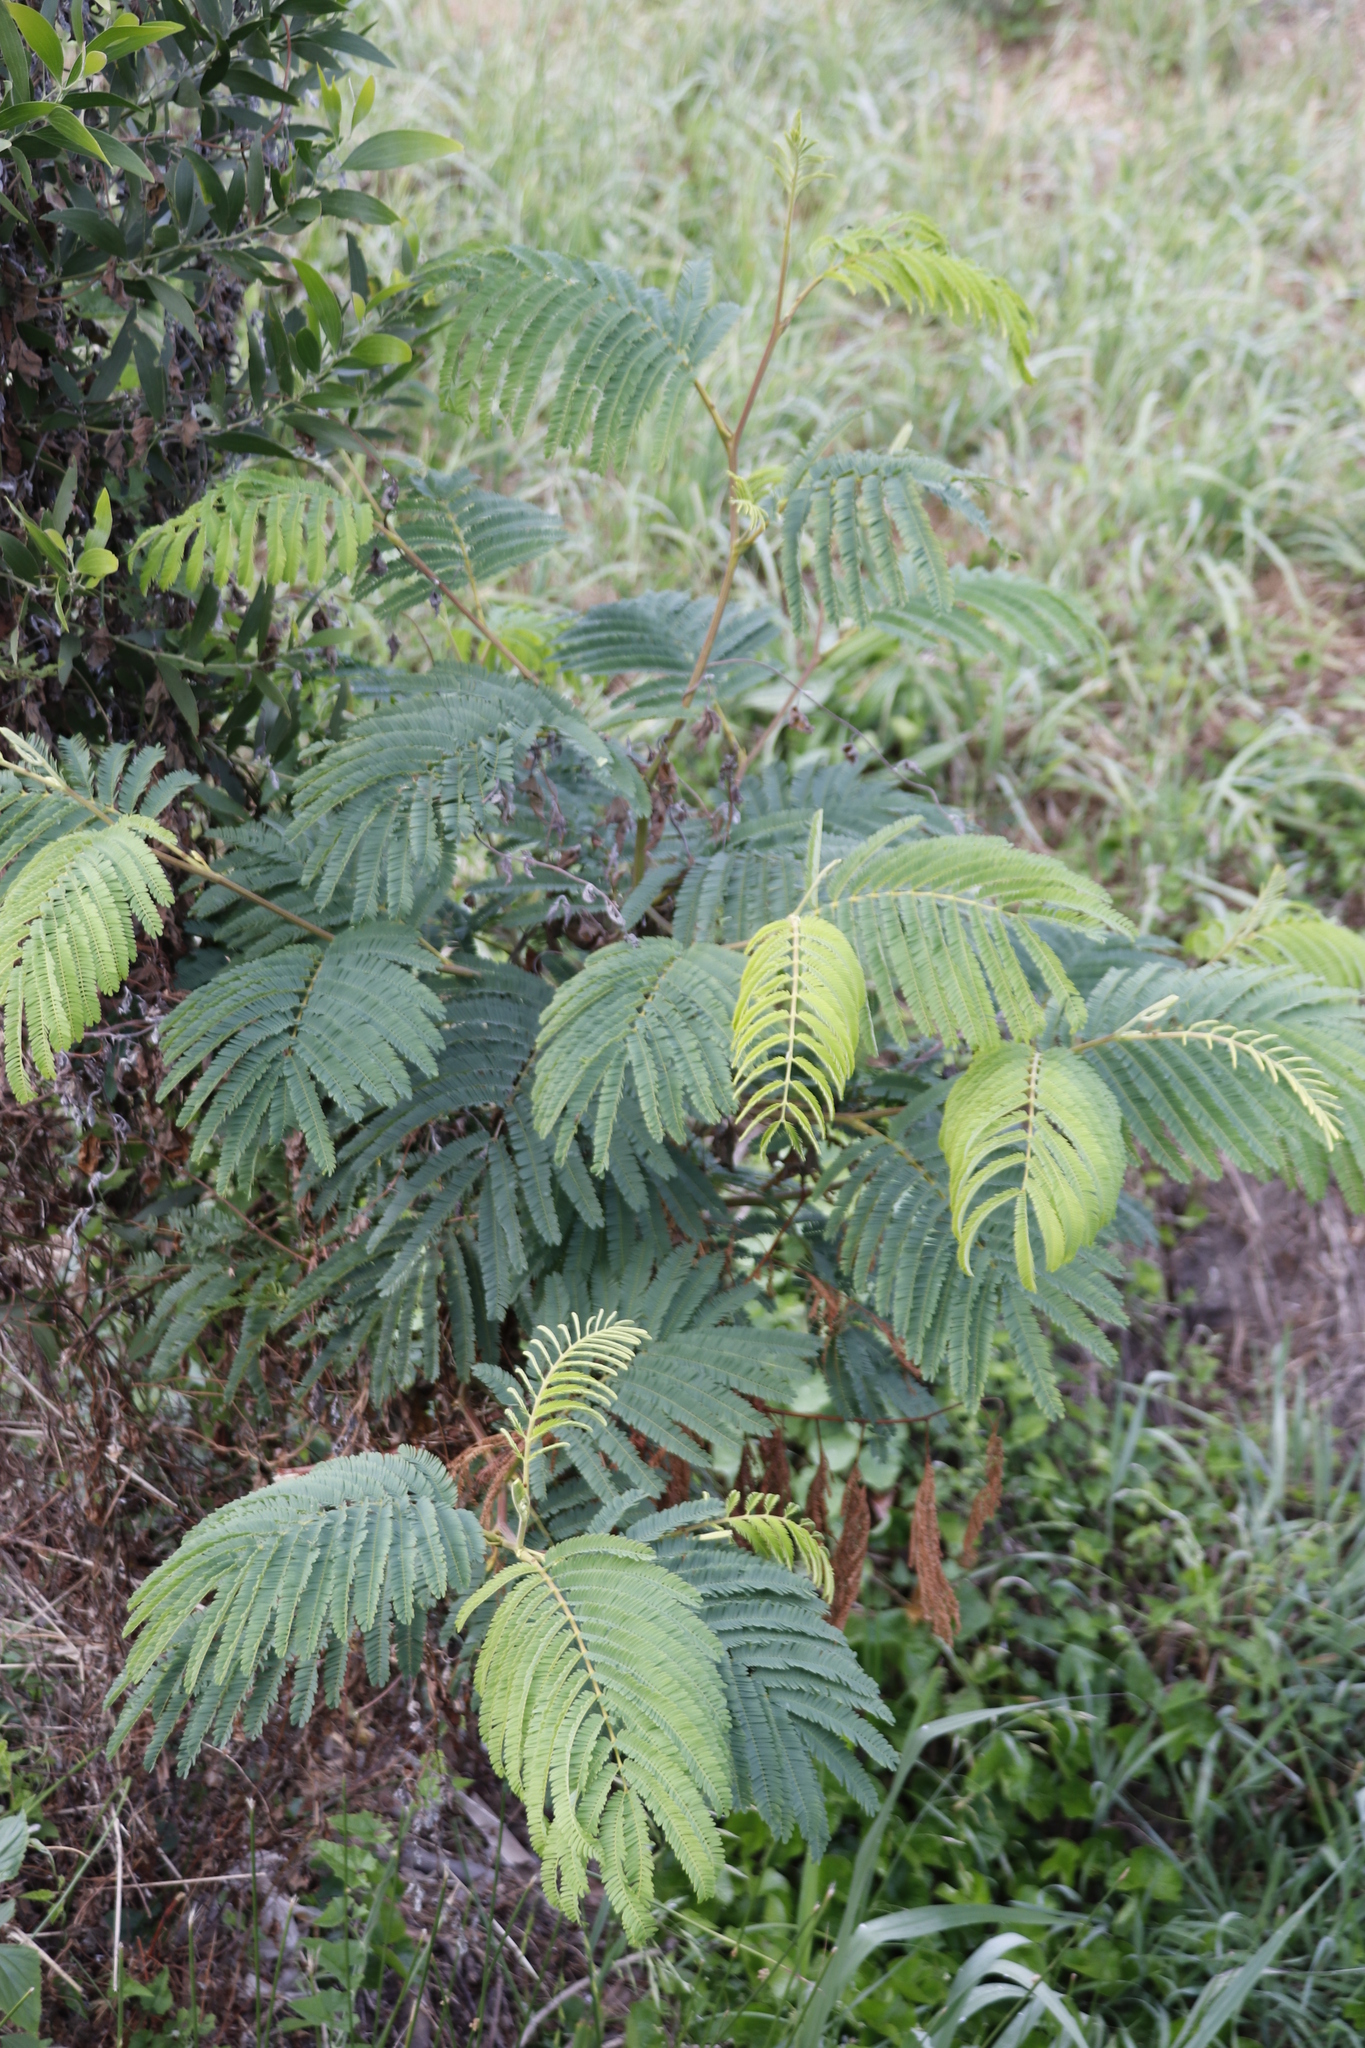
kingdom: Plantae
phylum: Tracheophyta
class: Magnoliopsida
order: Fabales
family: Fabaceae
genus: Paraserianthes
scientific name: Paraserianthes lophantha
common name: Plume albizia
